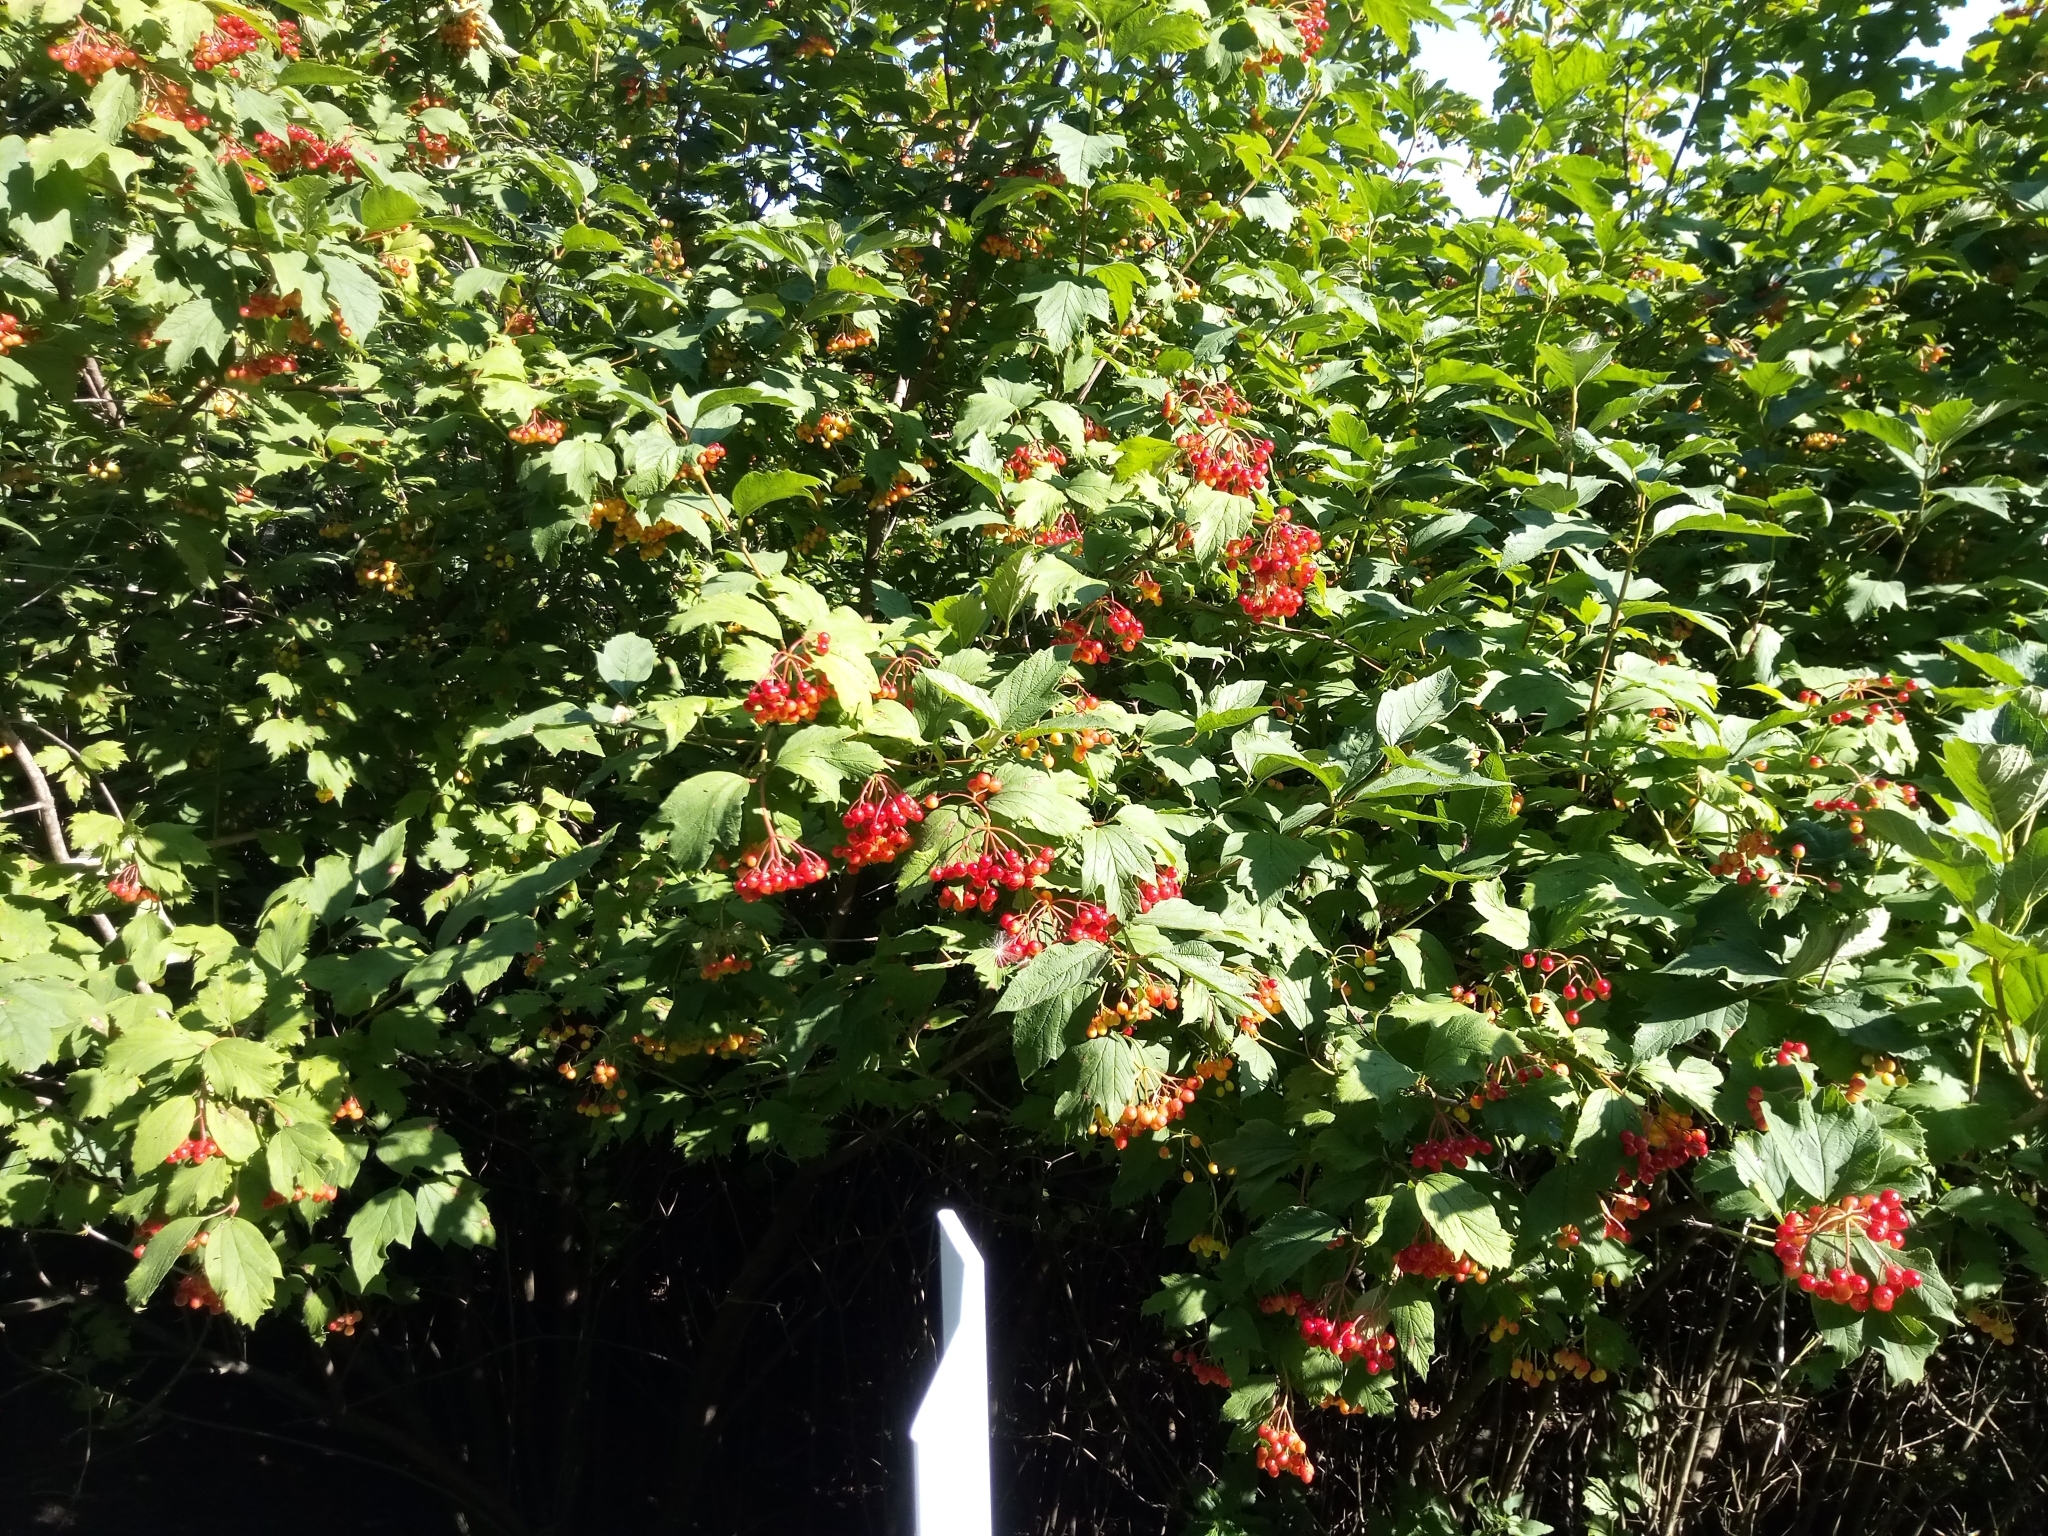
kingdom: Plantae
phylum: Tracheophyta
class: Magnoliopsida
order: Dipsacales
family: Viburnaceae
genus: Viburnum
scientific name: Viburnum opulus
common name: Guelder-rose
